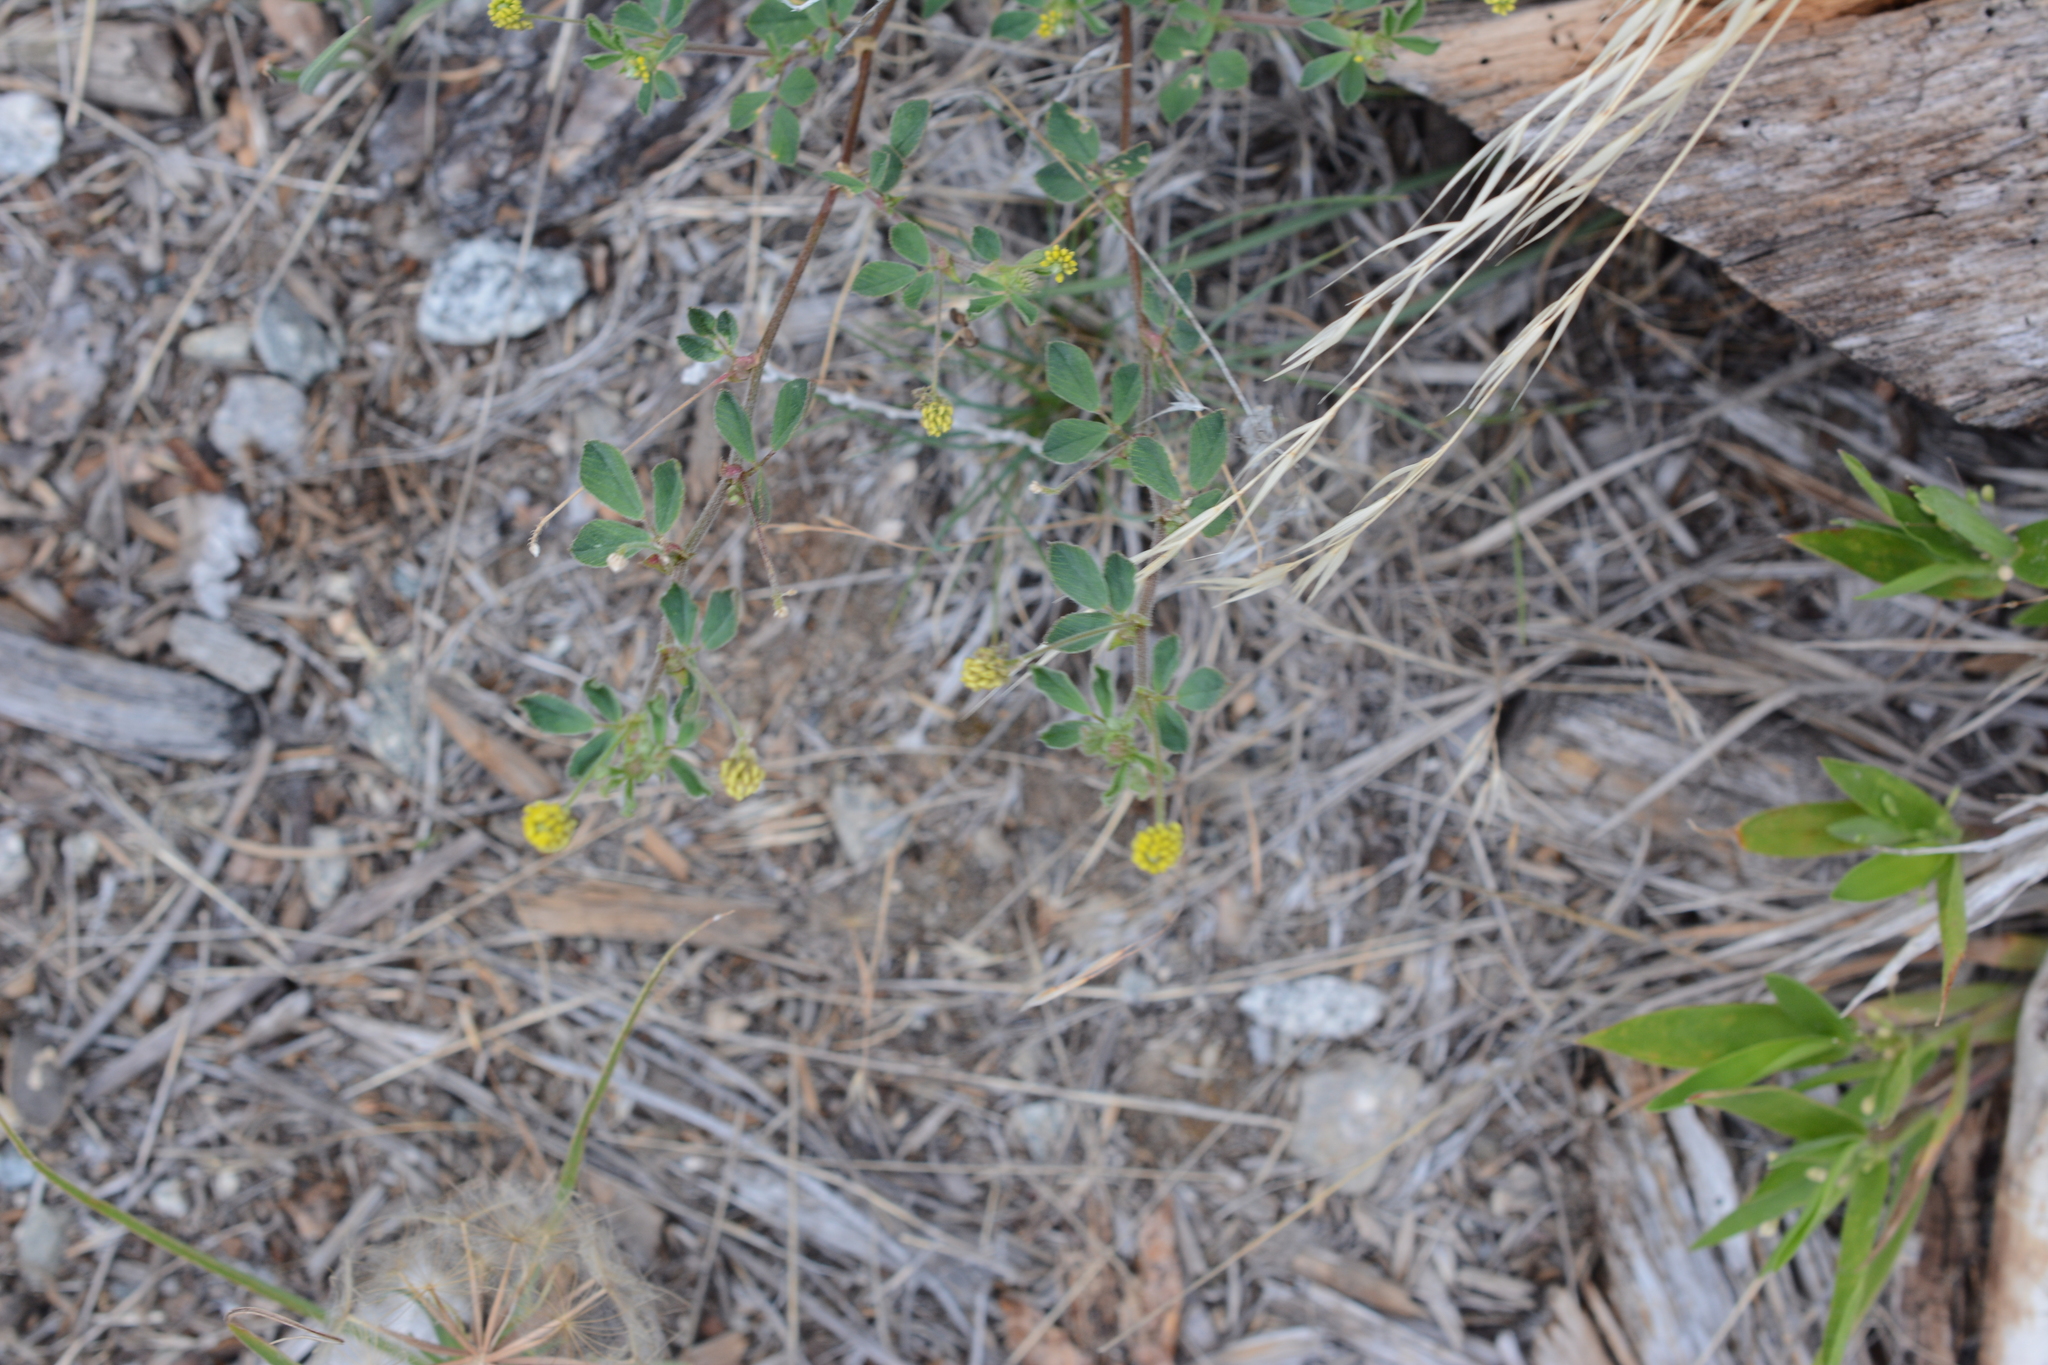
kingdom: Plantae
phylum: Tracheophyta
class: Magnoliopsida
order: Fabales
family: Fabaceae
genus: Medicago
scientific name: Medicago lupulina
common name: Black medick
